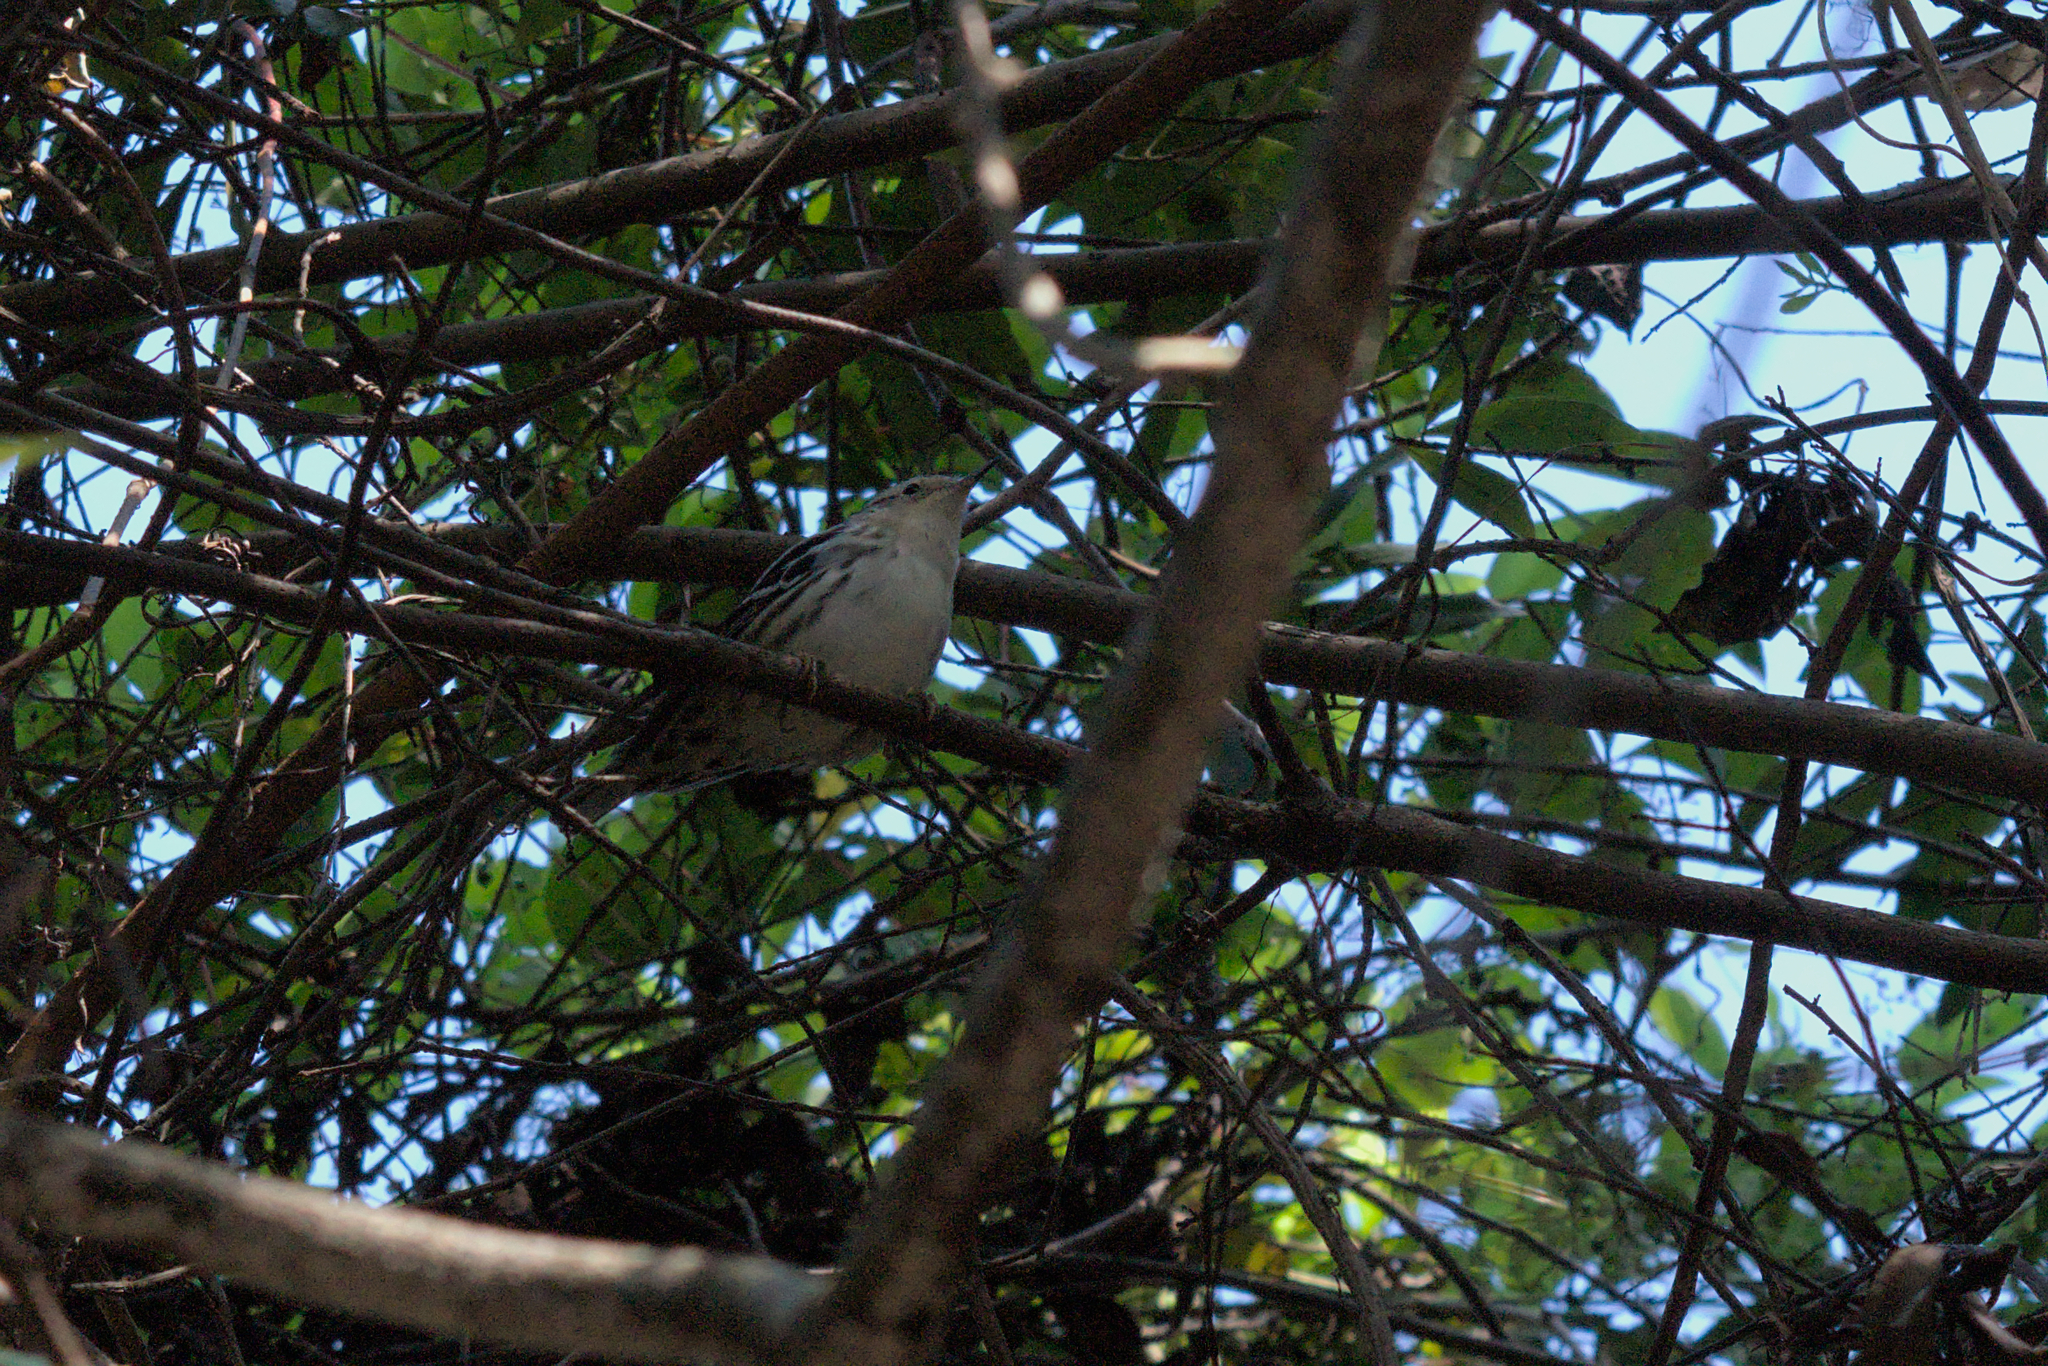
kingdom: Animalia
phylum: Chordata
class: Aves
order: Passeriformes
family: Parulidae
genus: Mniotilta
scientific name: Mniotilta varia
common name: Black-and-white warbler
